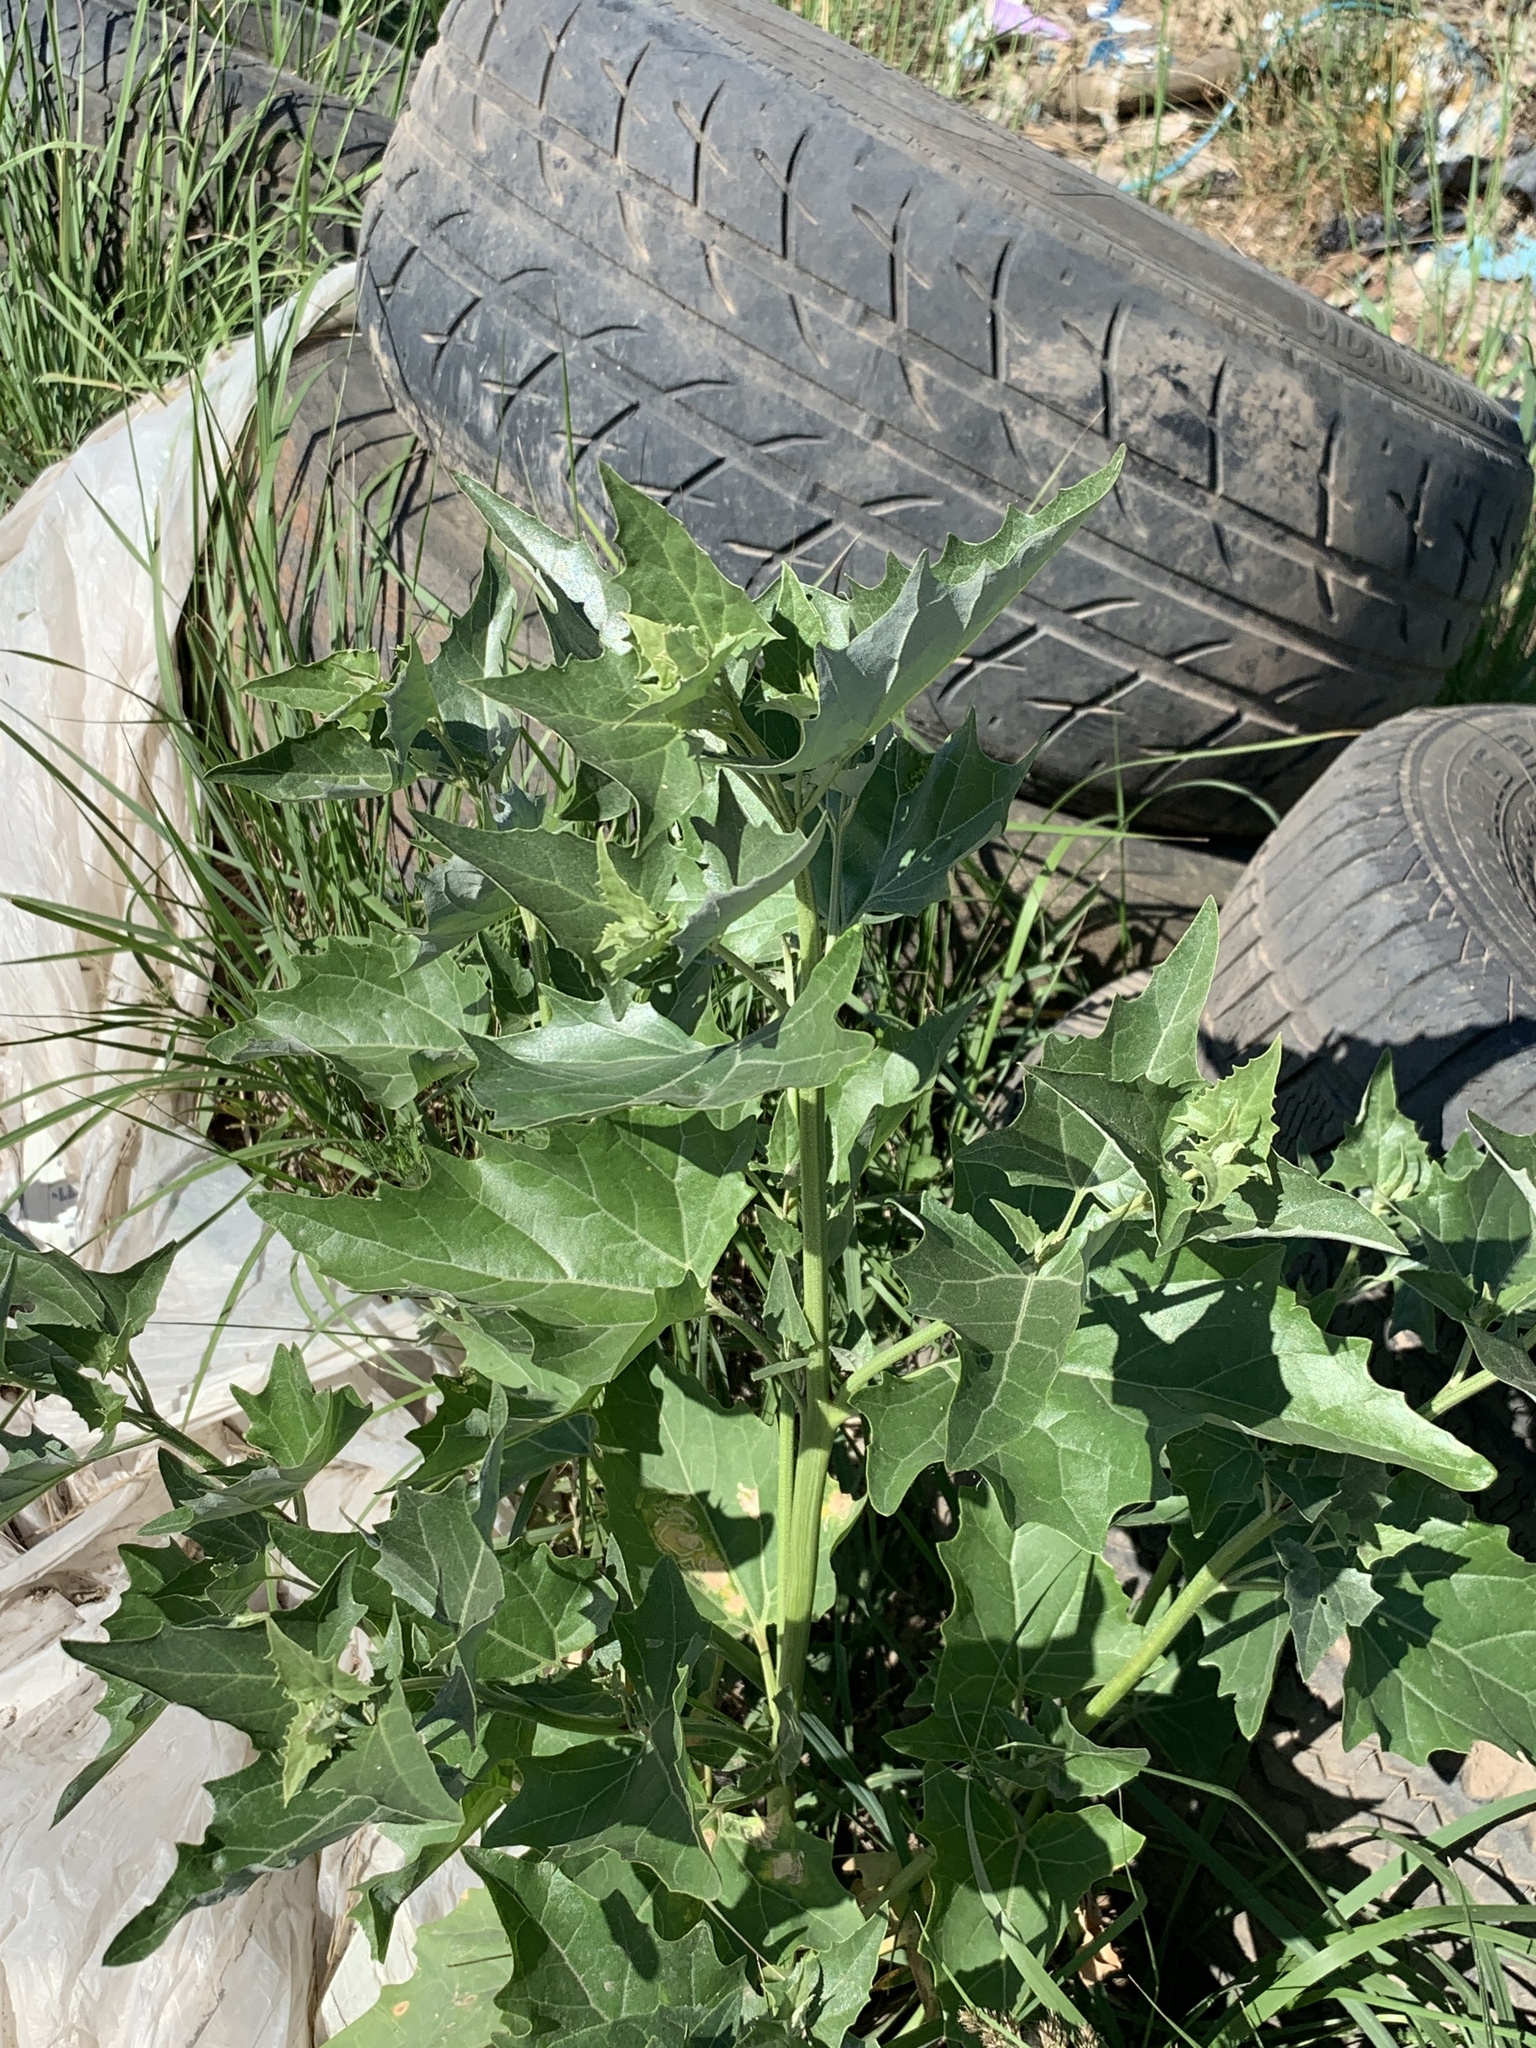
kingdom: Plantae
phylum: Tracheophyta
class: Magnoliopsida
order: Caryophyllales
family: Amaranthaceae
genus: Atriplex
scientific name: Atriplex sagittata
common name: Purple orache
